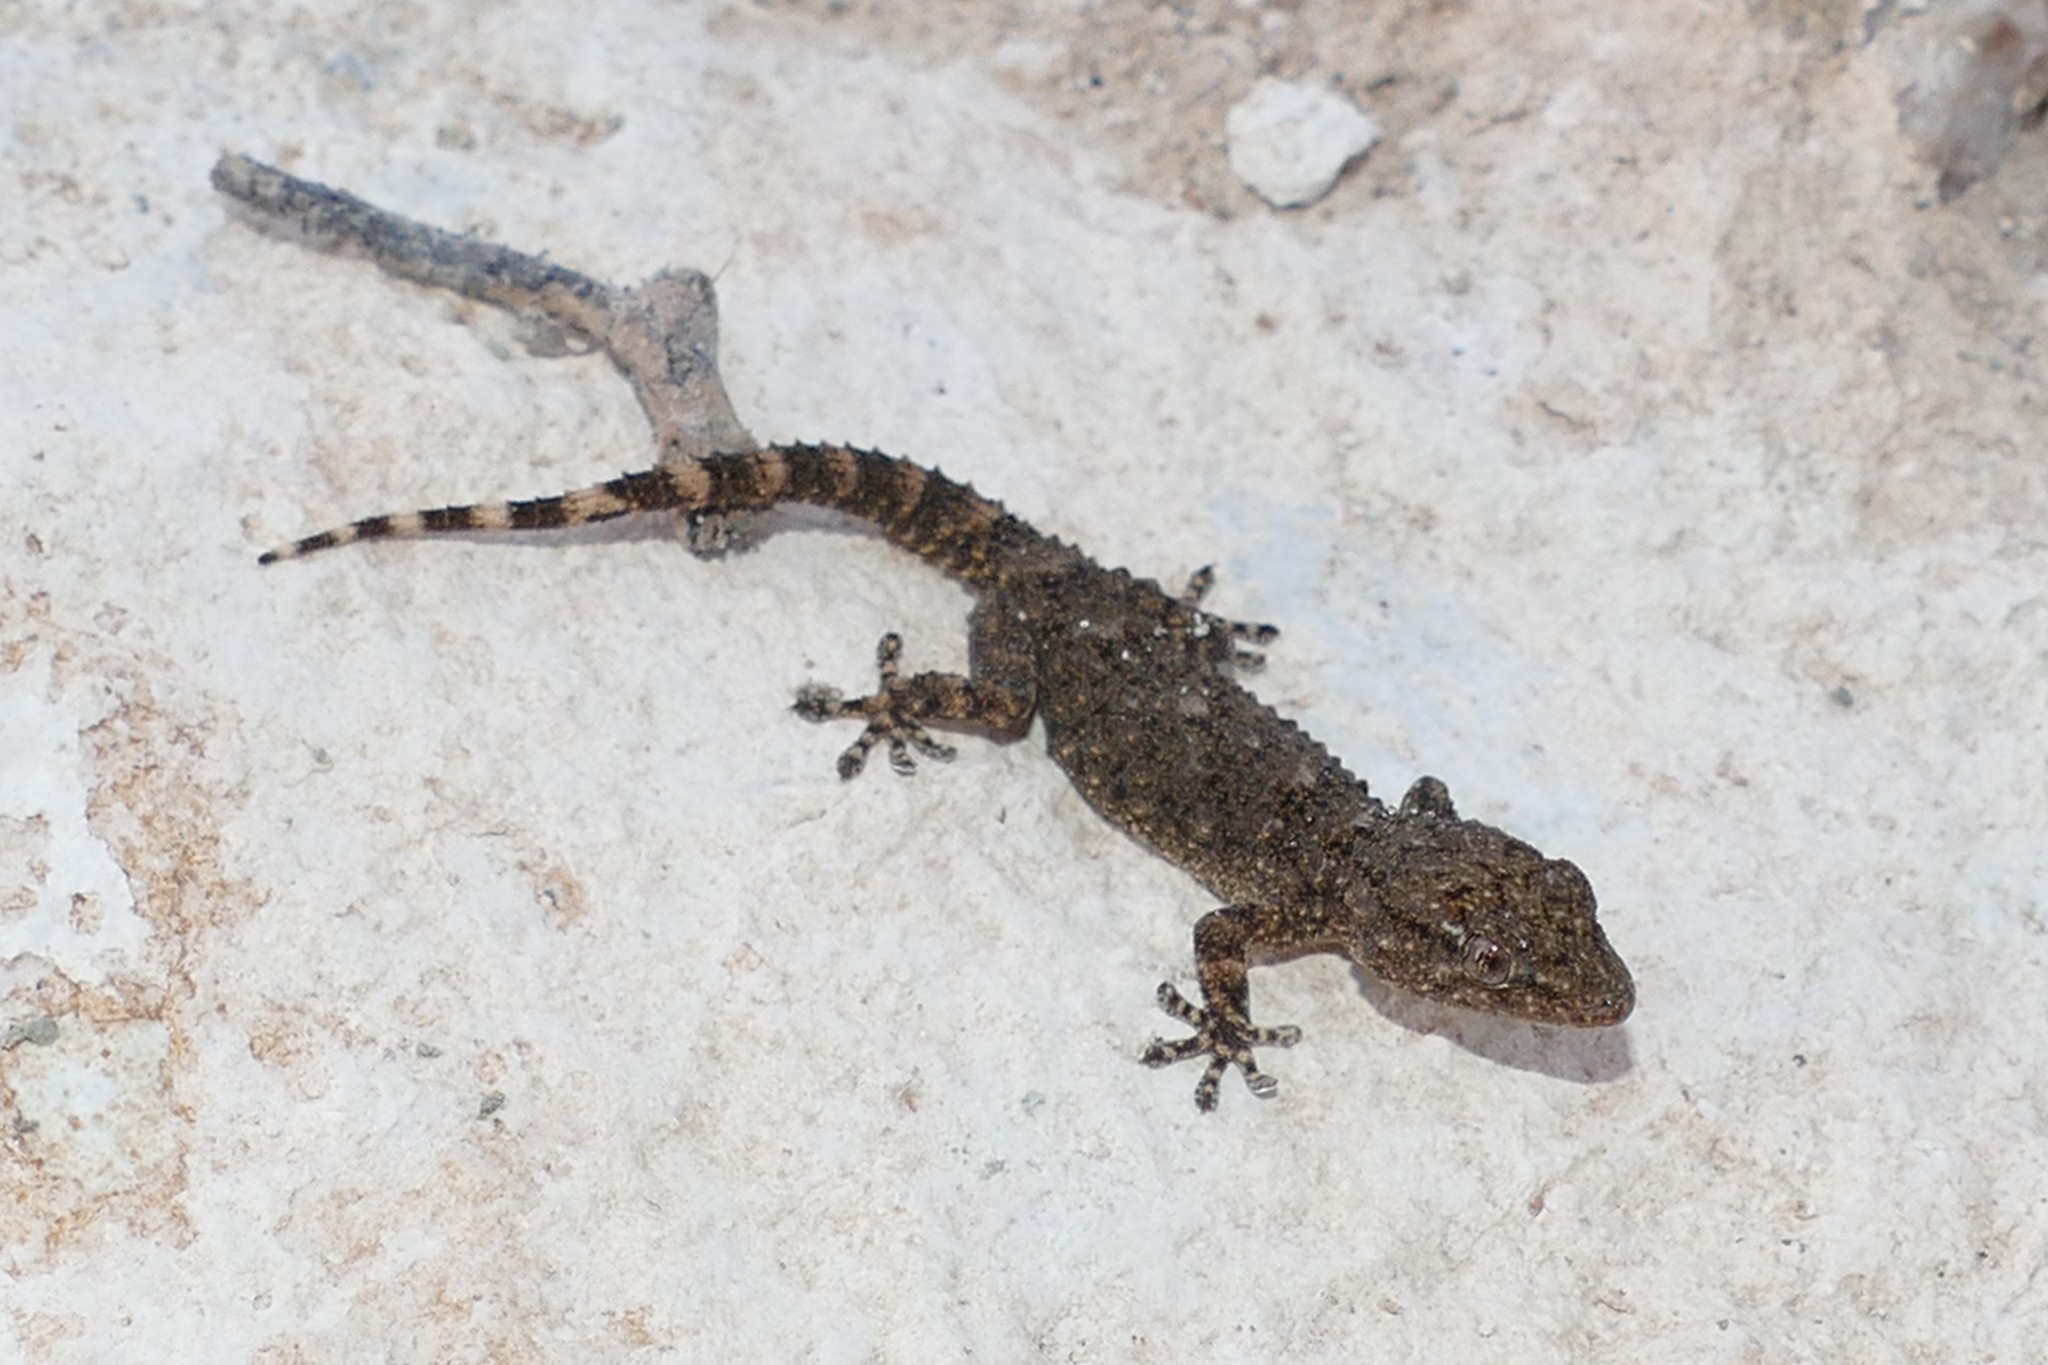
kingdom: Animalia
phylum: Chordata
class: Squamata
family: Phyllodactylidae
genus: Tarentola
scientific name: Tarentola mauritanica
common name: Moorish gecko
